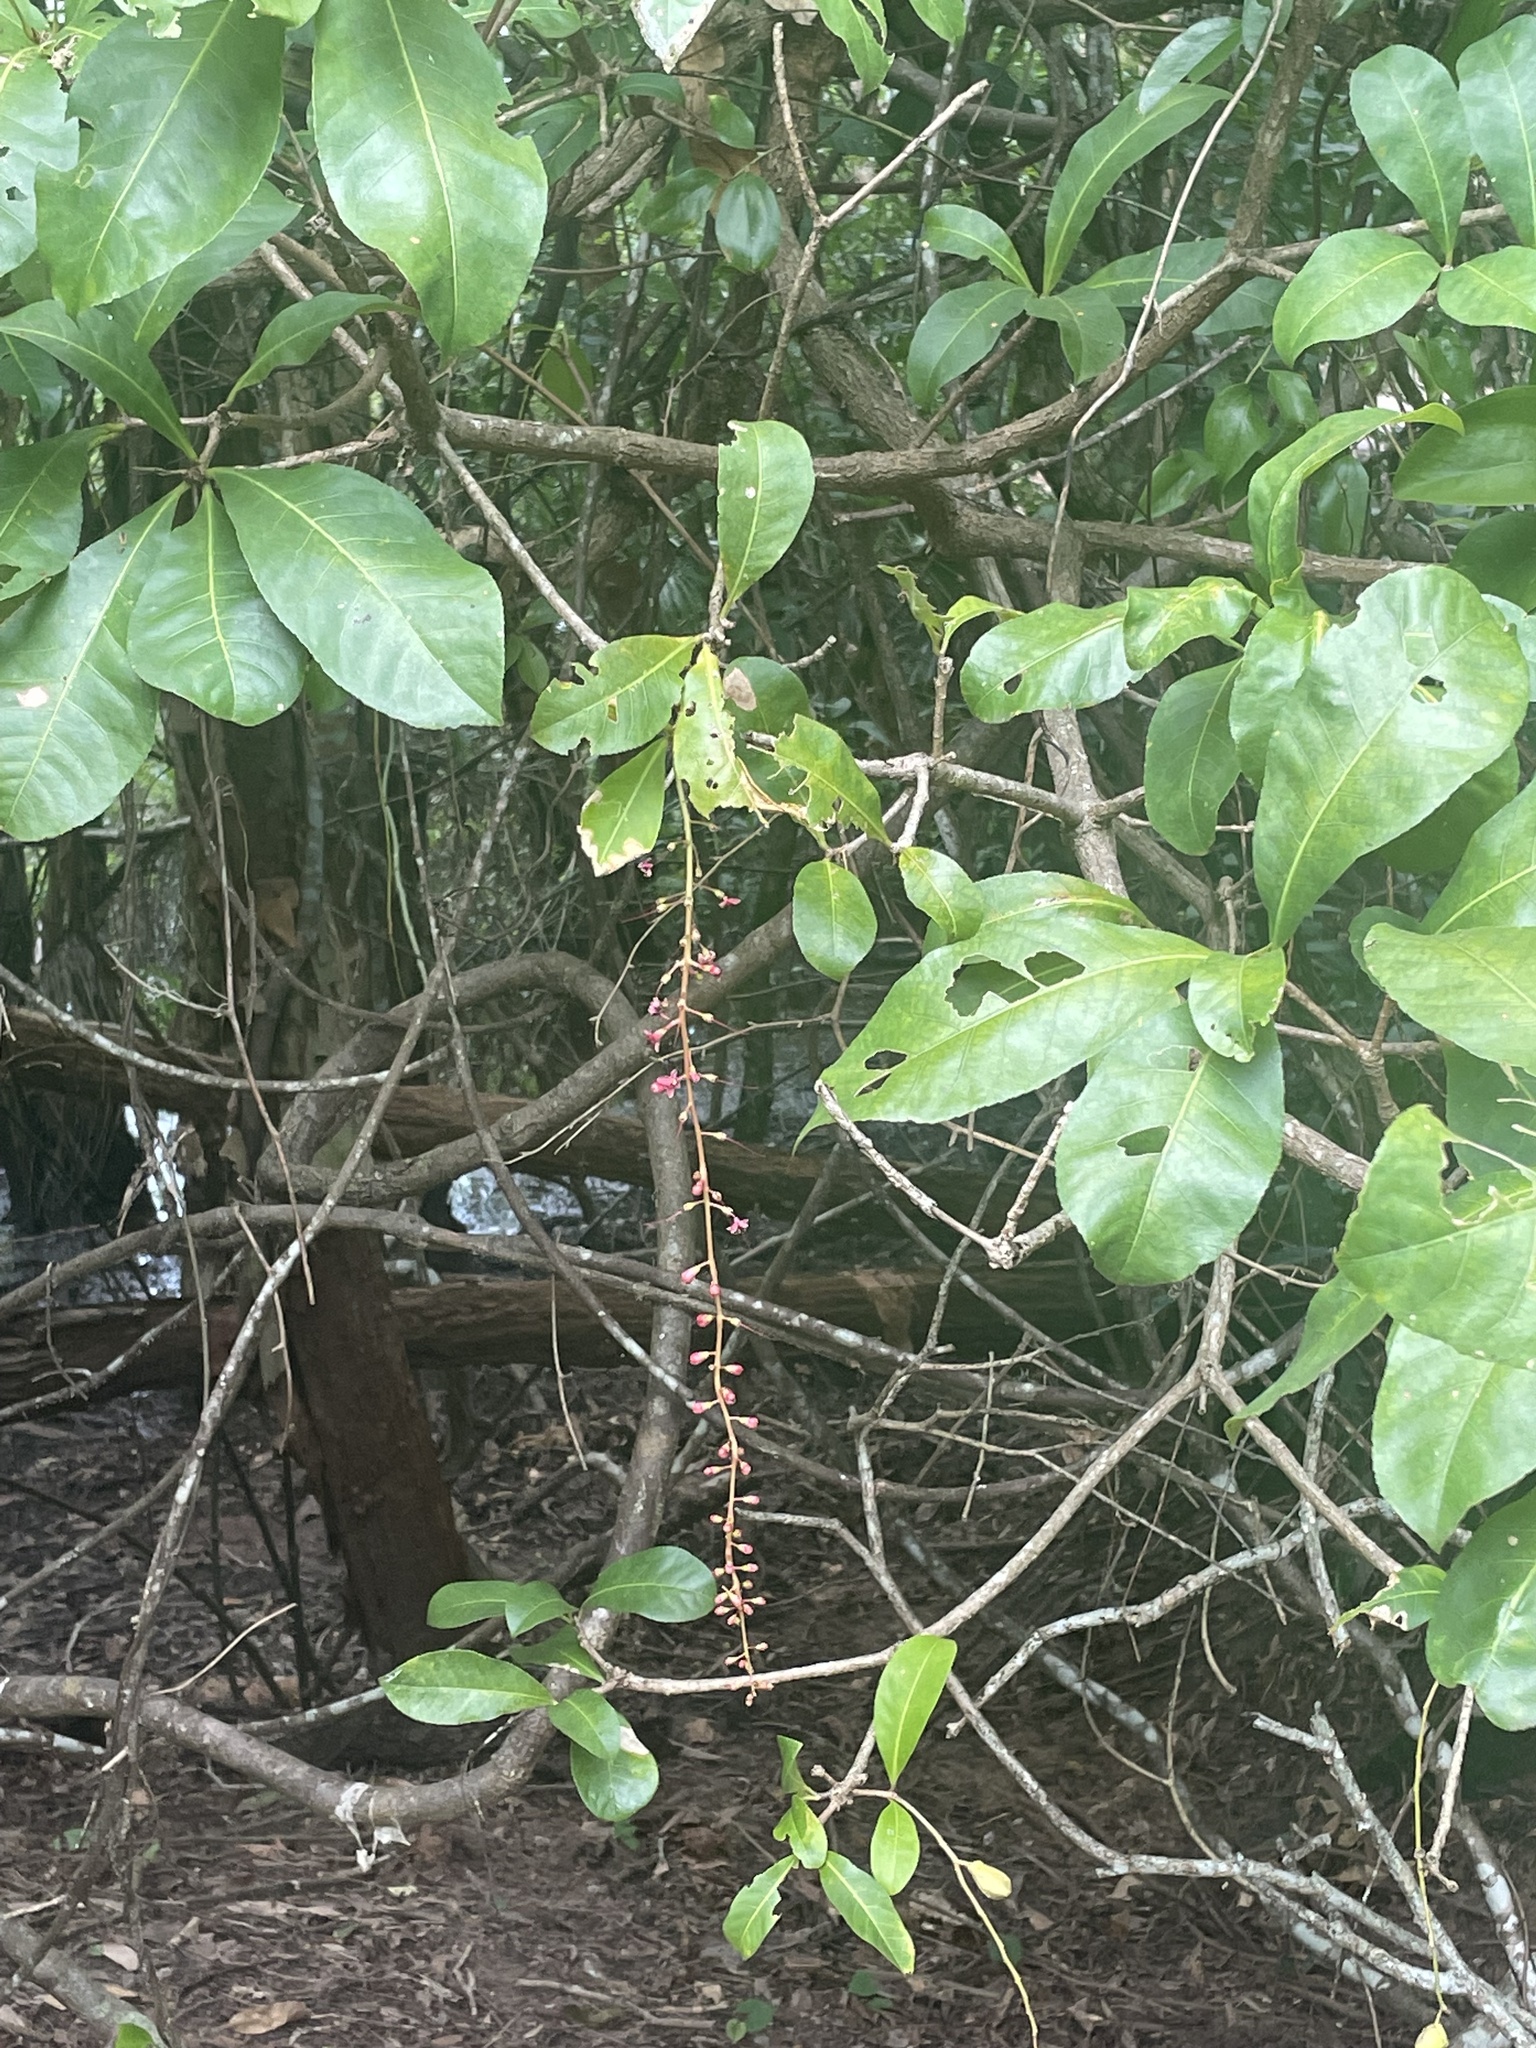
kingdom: Plantae
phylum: Tracheophyta
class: Magnoliopsida
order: Ericales
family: Lecythidaceae
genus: Barringtonia
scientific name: Barringtonia acutangula
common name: Freshwater mangrove
